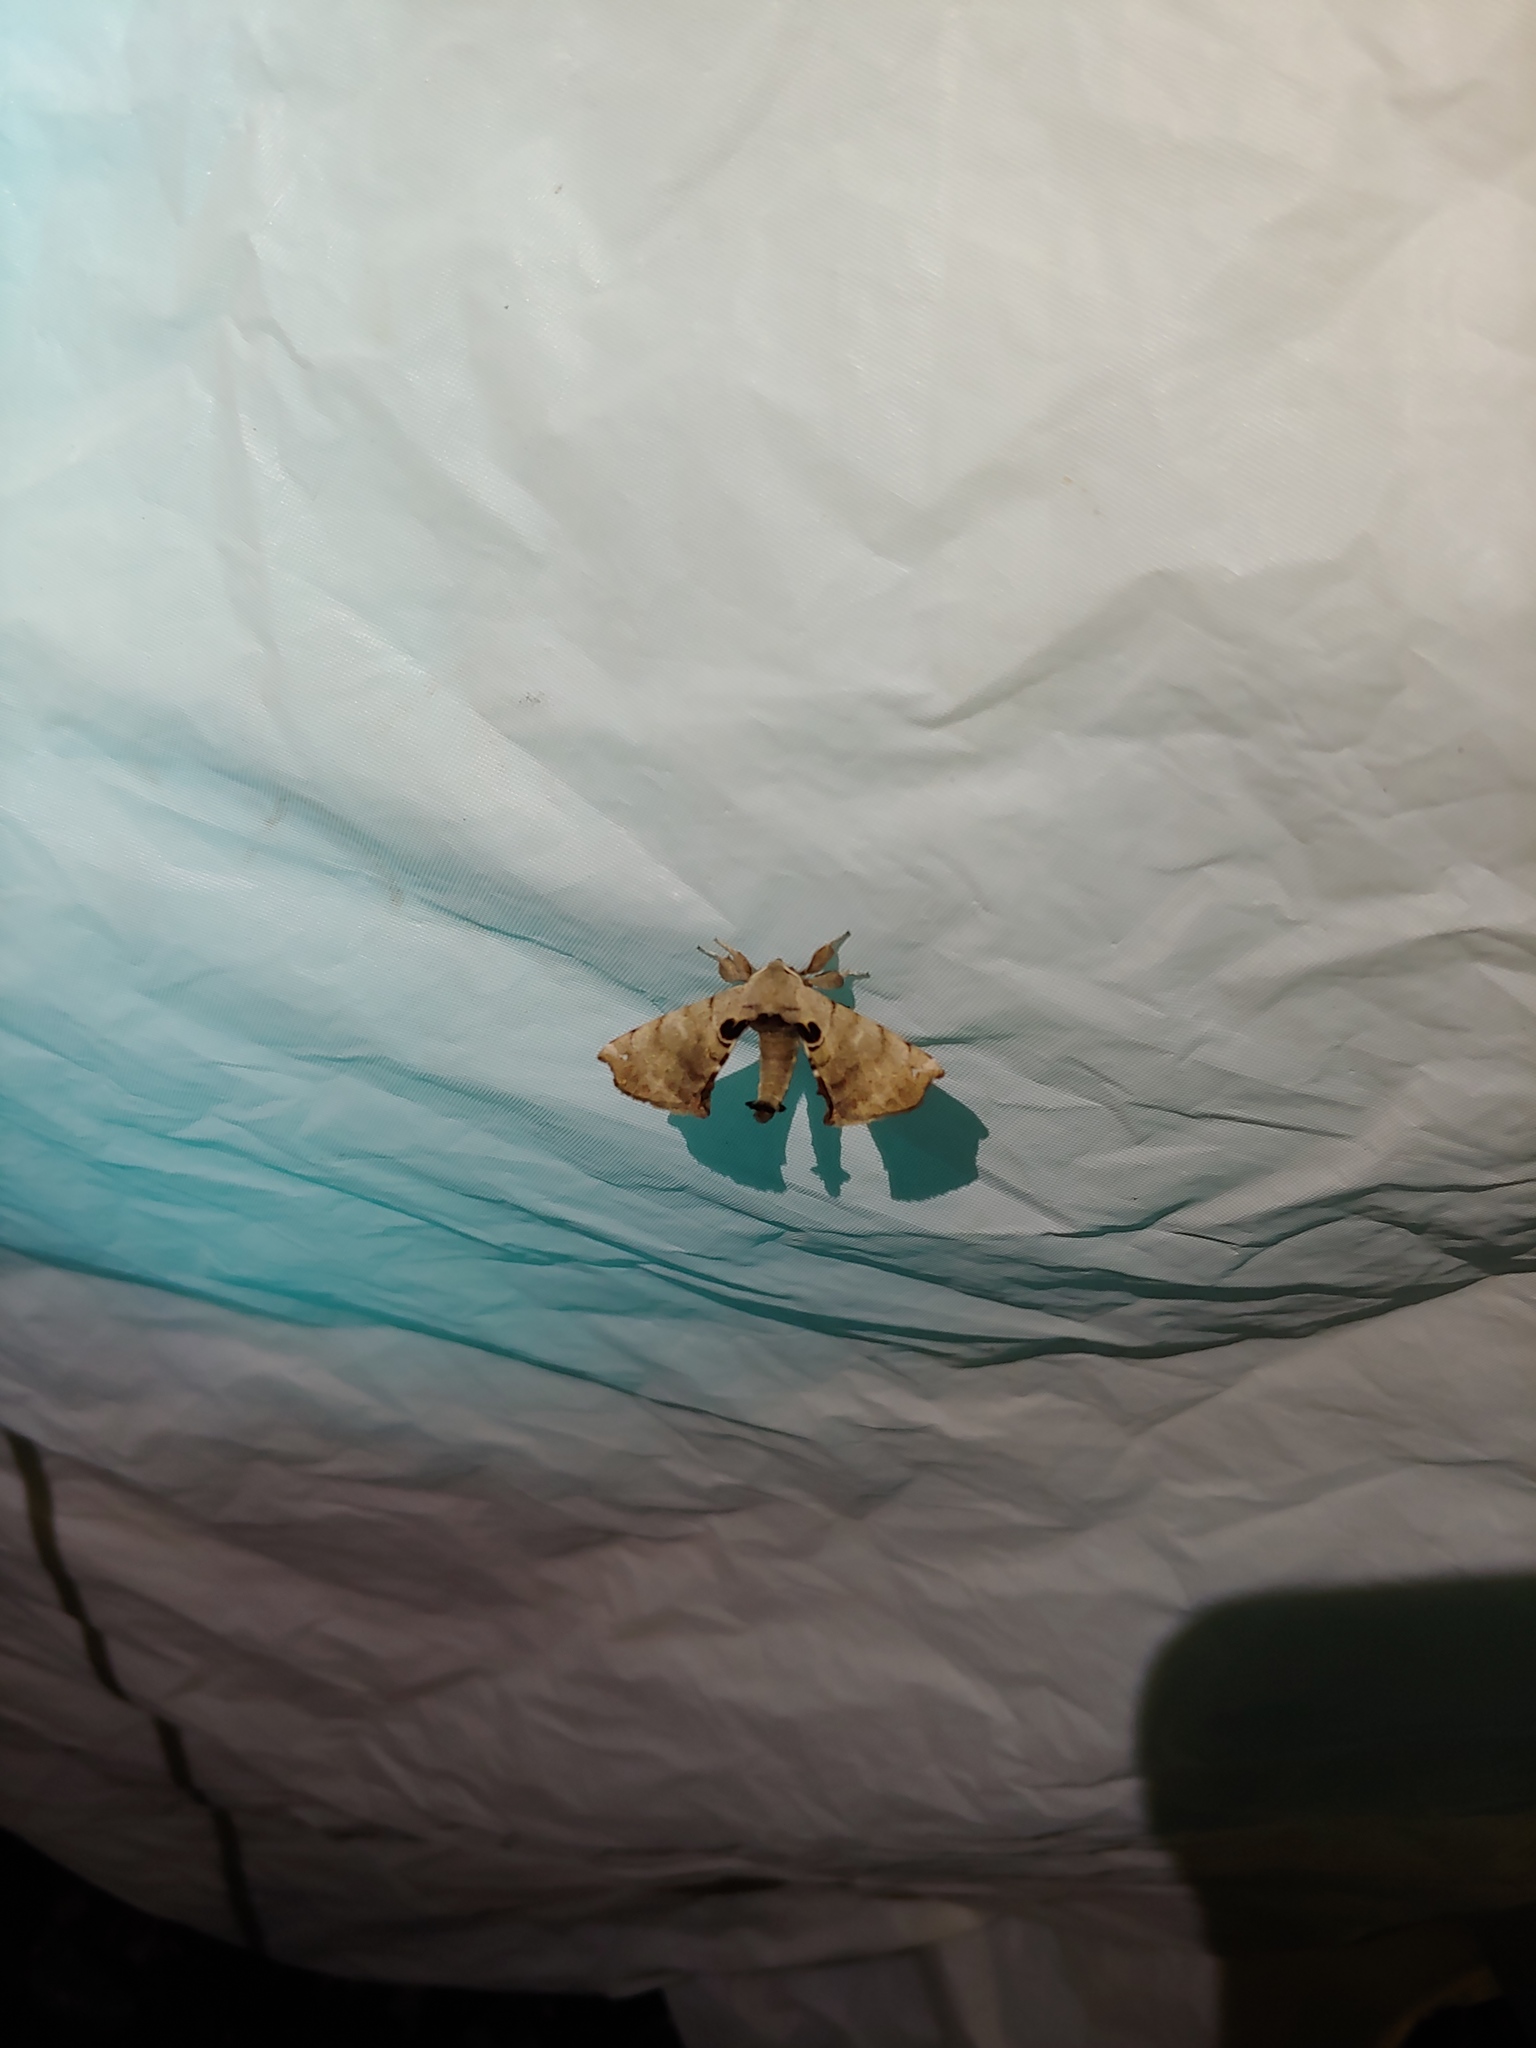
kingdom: Animalia
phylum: Arthropoda
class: Insecta
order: Lepidoptera
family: Apatelodidae
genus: Hygrochroa
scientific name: Hygrochroa Apatelodes torrefacta
